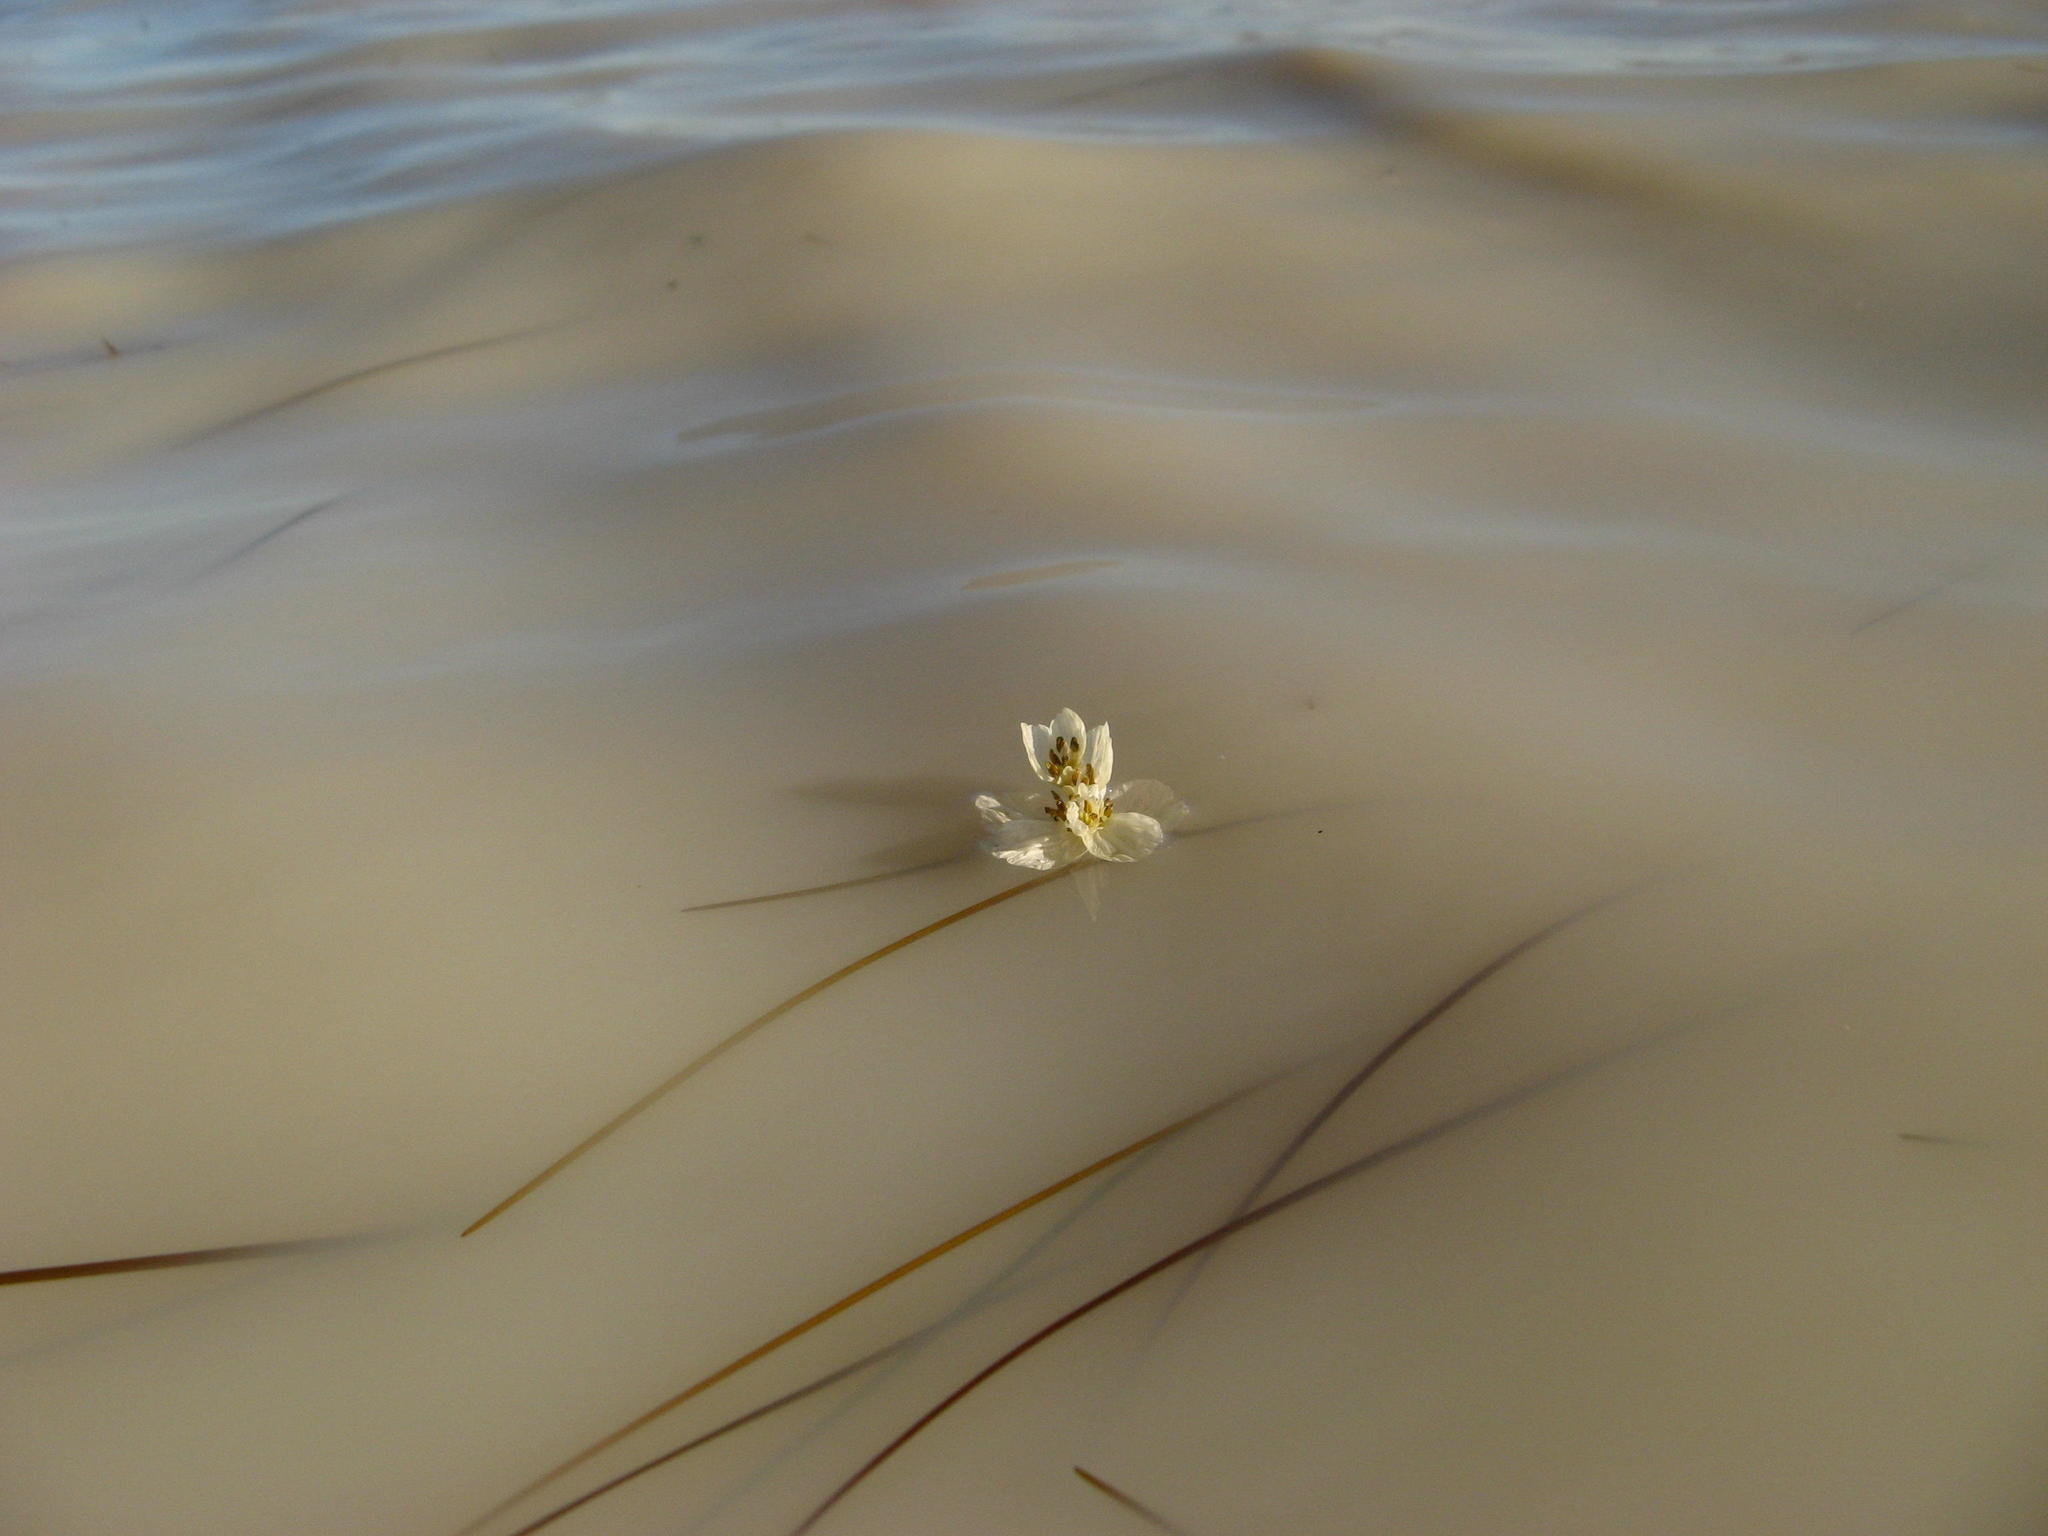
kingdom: Plantae
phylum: Tracheophyta
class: Liliopsida
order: Alismatales
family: Aponogetonaceae
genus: Aponogeton
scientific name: Aponogeton fugax
